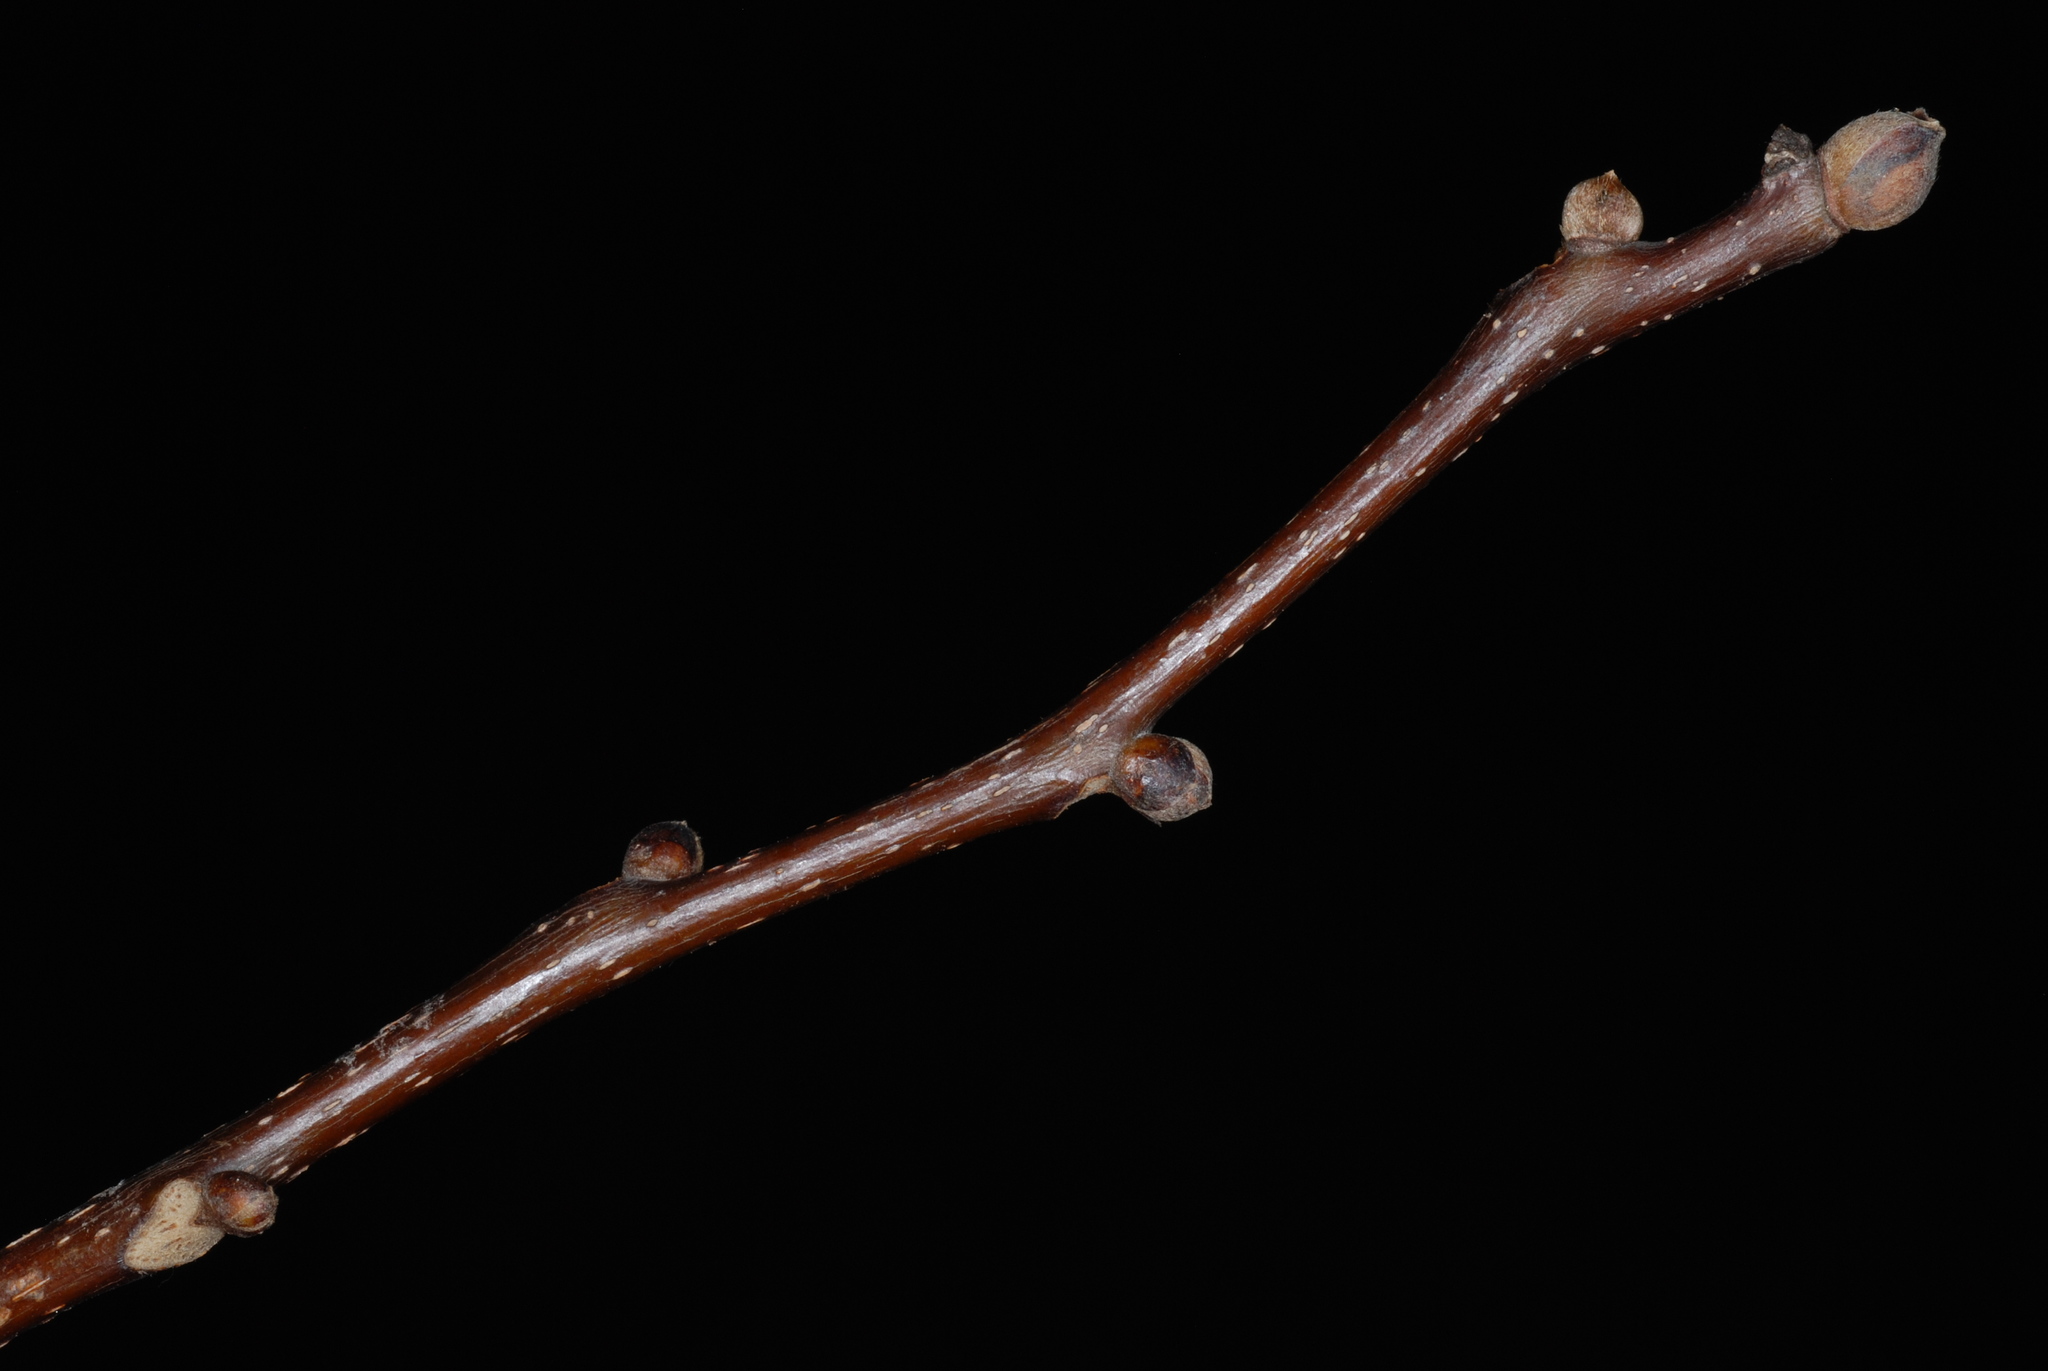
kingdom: Plantae
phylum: Tracheophyta
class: Magnoliopsida
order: Fagales
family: Juglandaceae
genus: Carya
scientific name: Carya ovalis
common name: False shagbark
